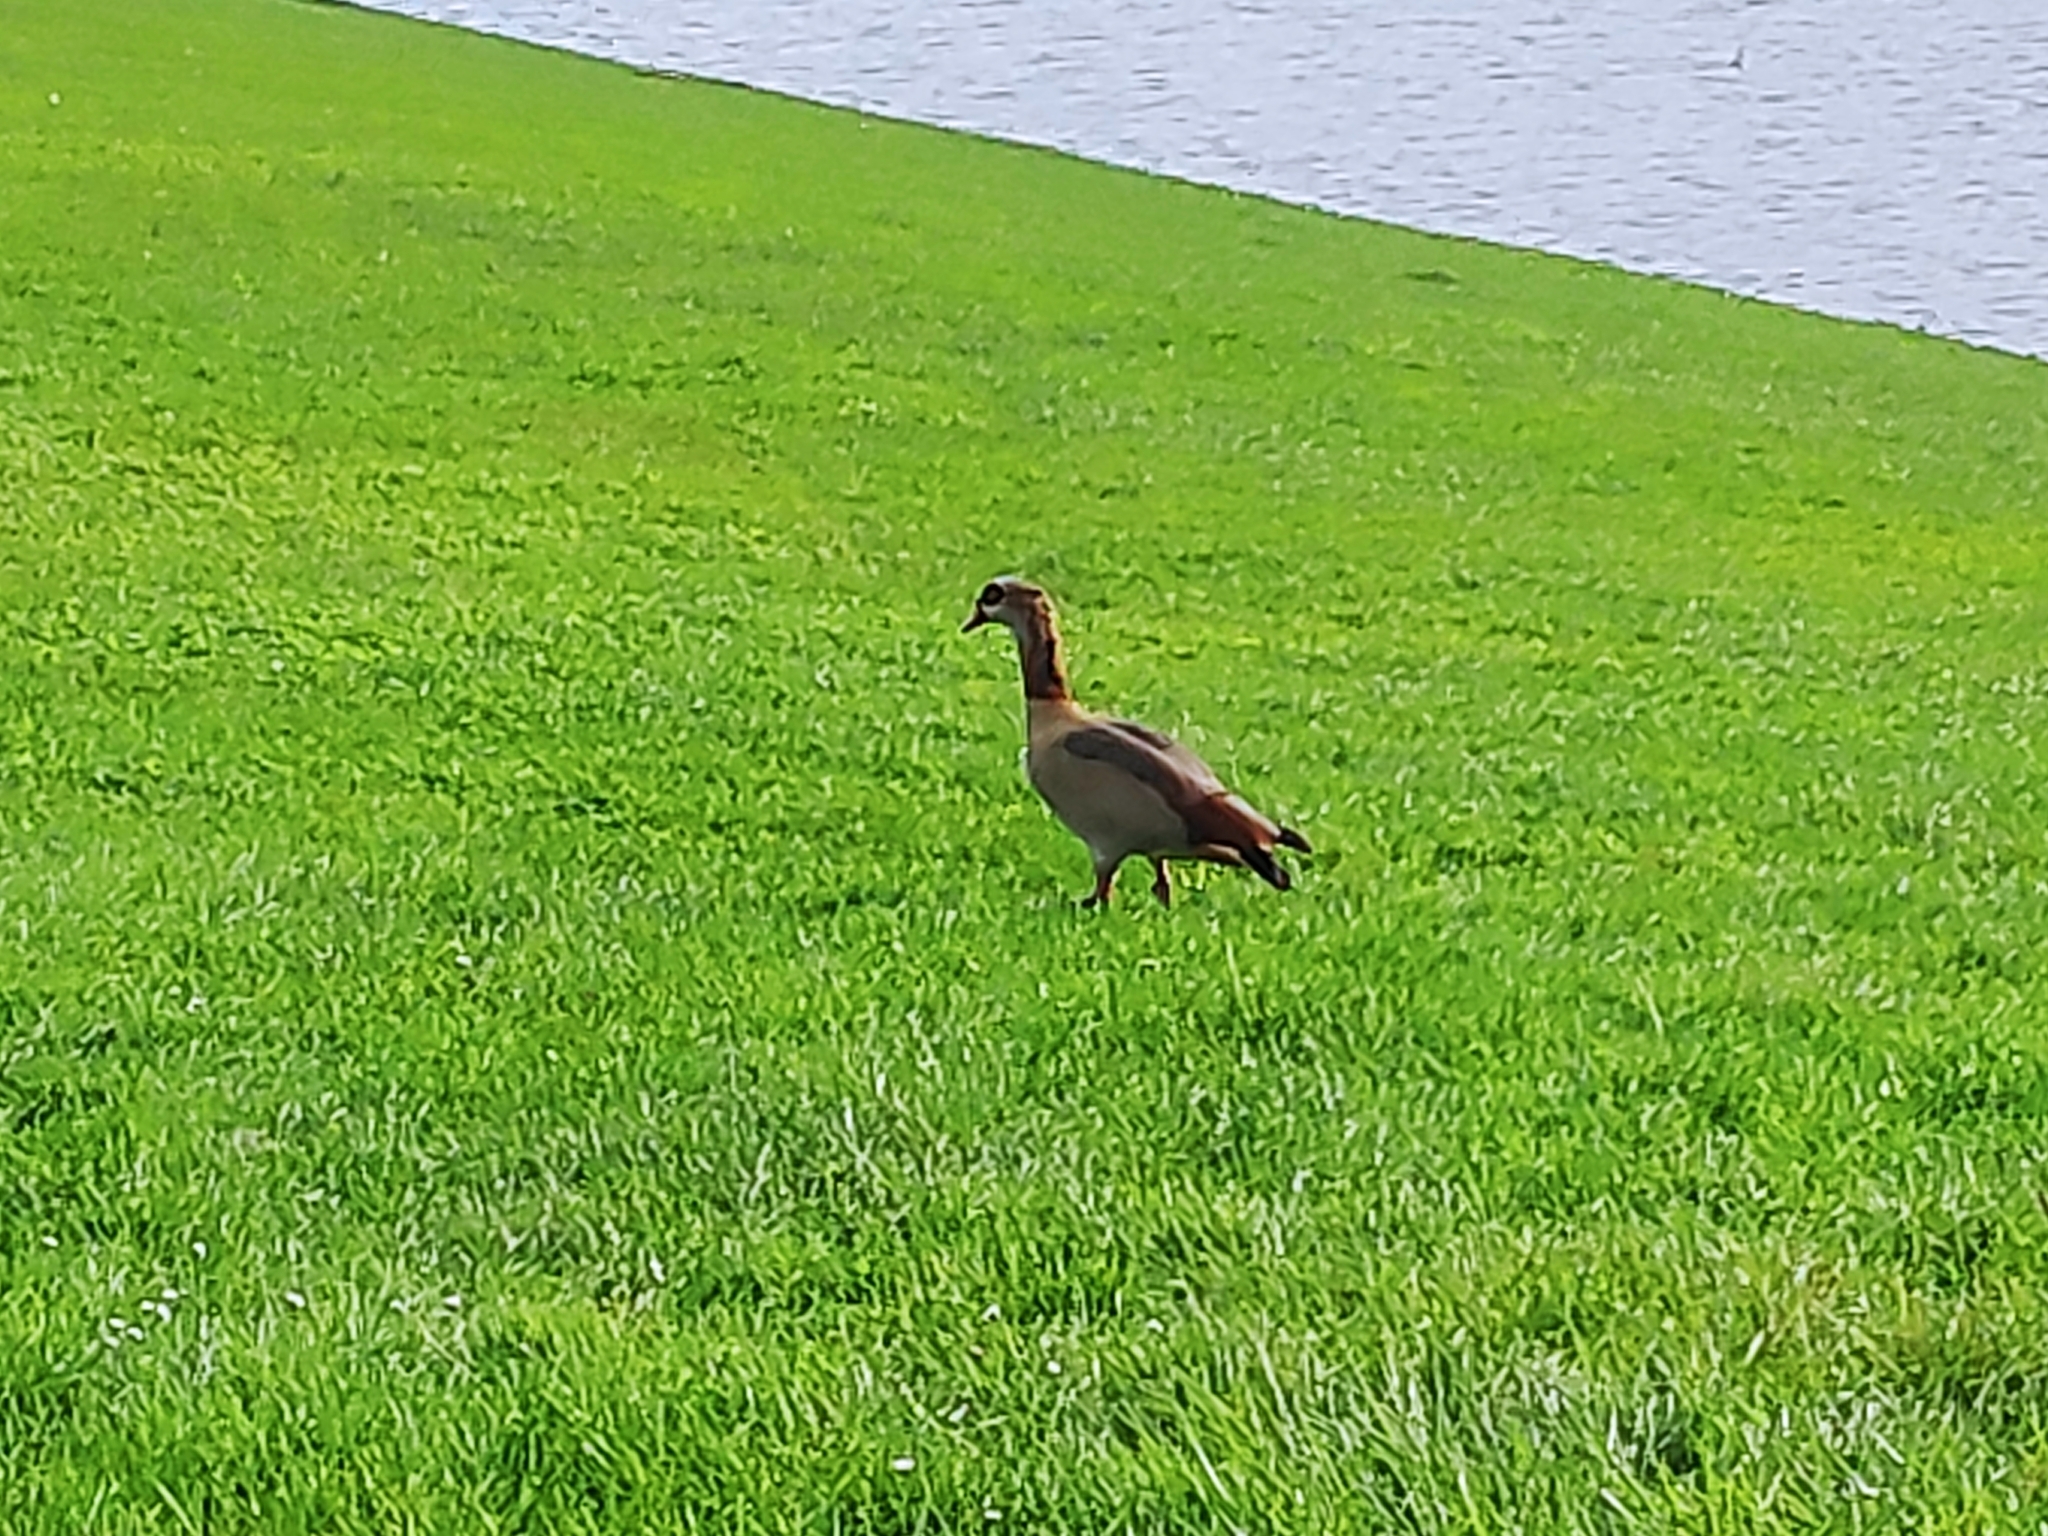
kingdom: Animalia
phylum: Chordata
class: Aves
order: Anseriformes
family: Anatidae
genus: Alopochen
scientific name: Alopochen aegyptiaca
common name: Egyptian goose
